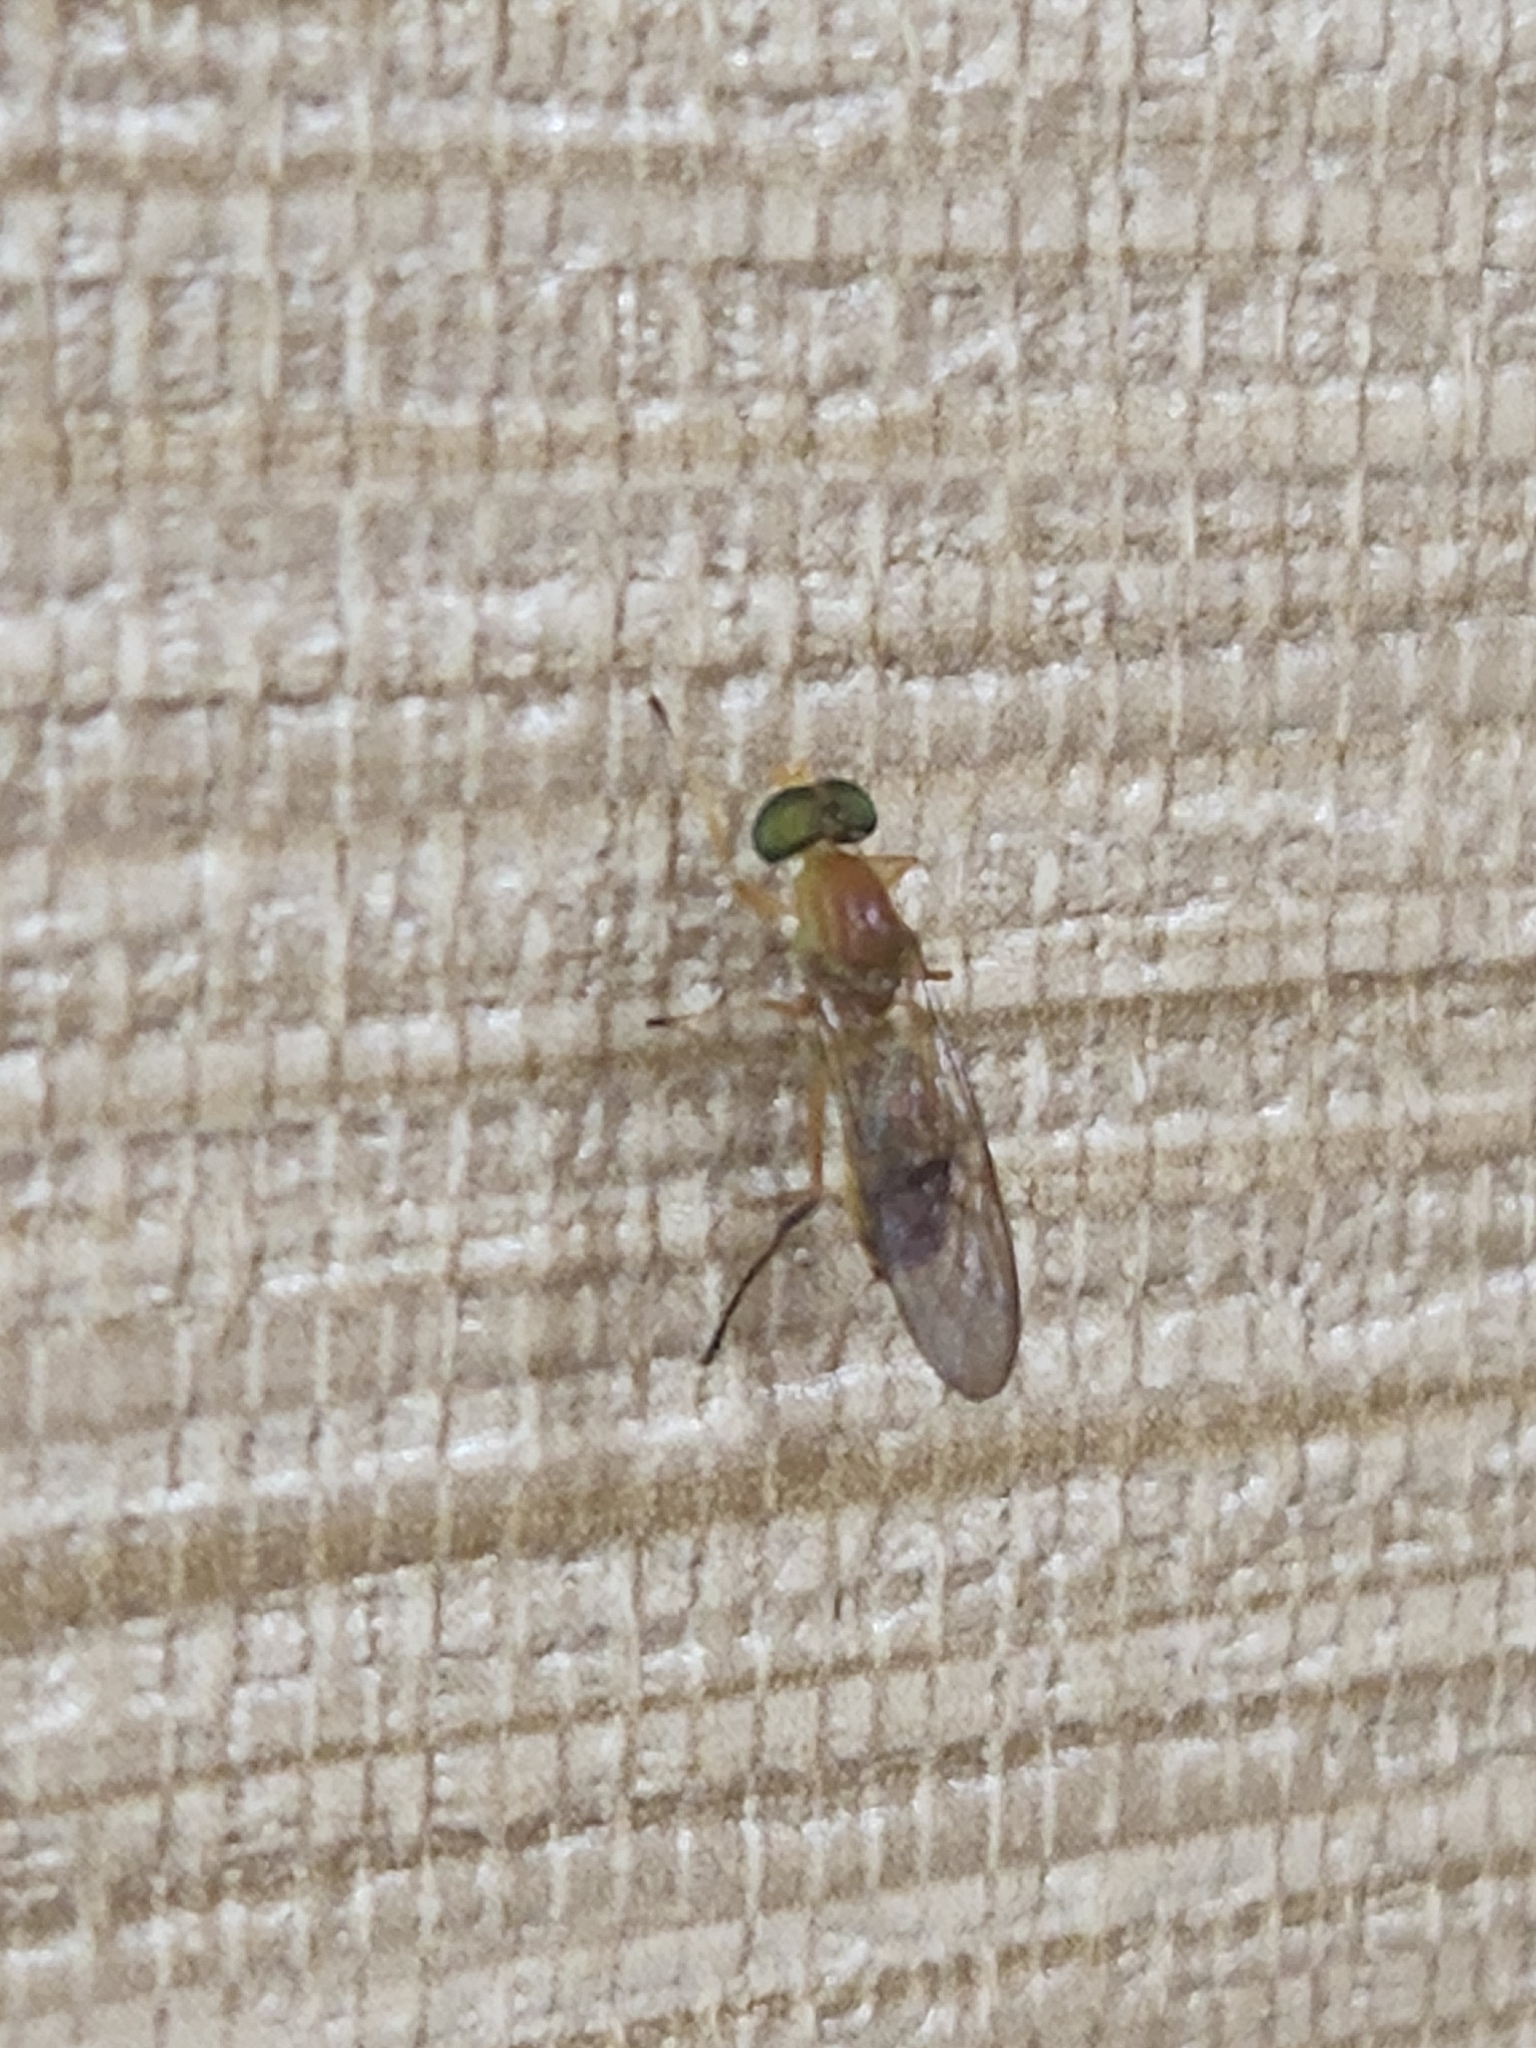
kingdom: Animalia
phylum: Arthropoda
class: Insecta
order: Diptera
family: Stratiomyidae
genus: Ptecticus
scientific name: Ptecticus trivittatus
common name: Compost fly
